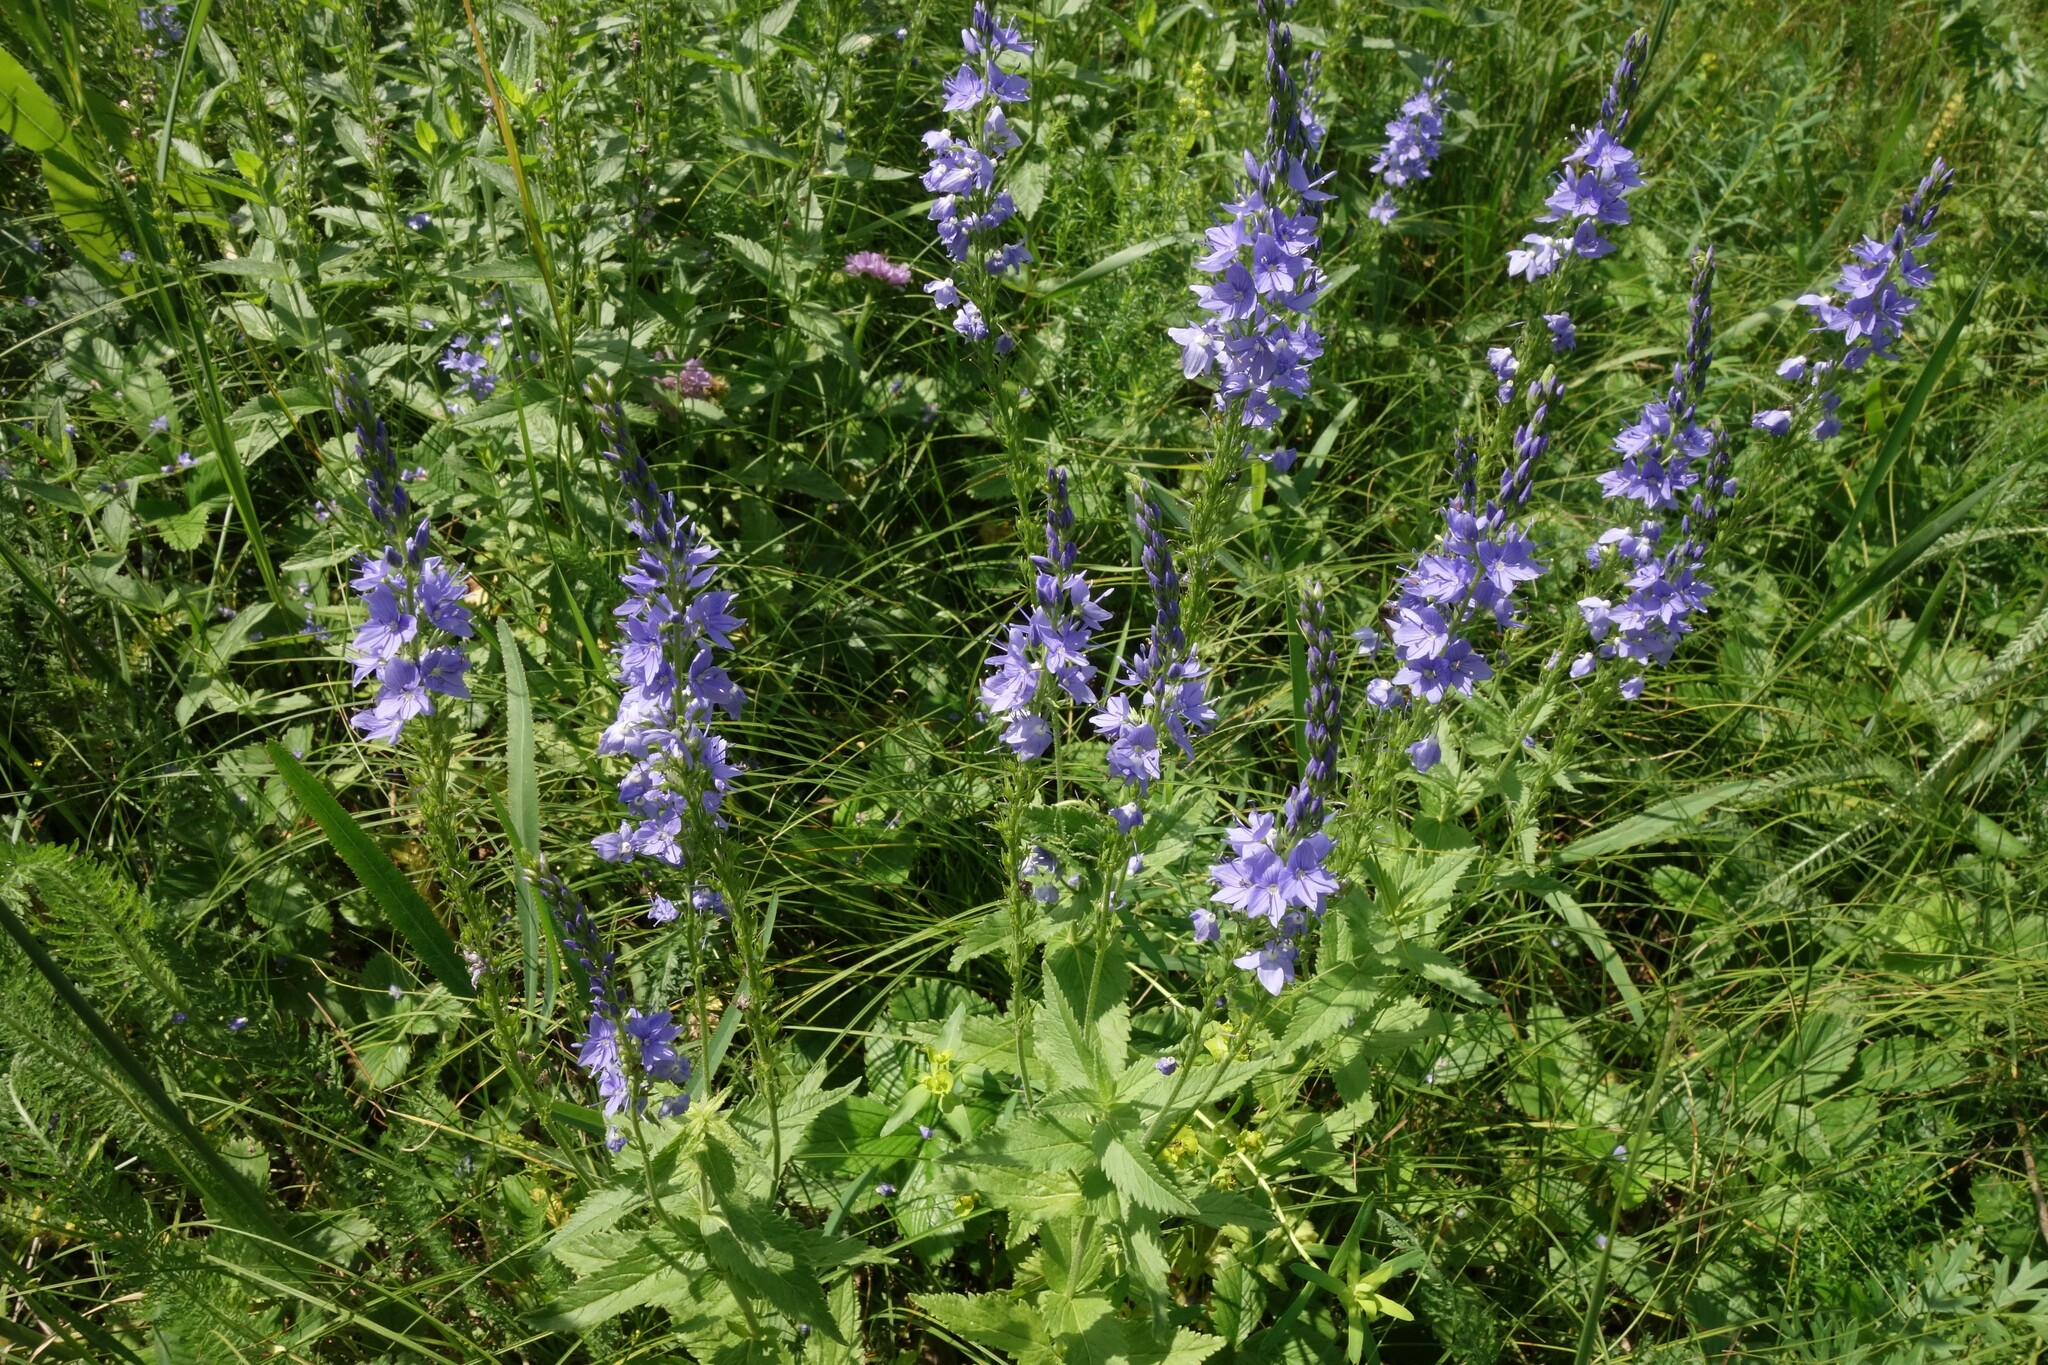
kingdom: Plantae
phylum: Tracheophyta
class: Magnoliopsida
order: Lamiales
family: Plantaginaceae
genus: Veronica
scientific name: Veronica teucrium
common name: Large speedwell
